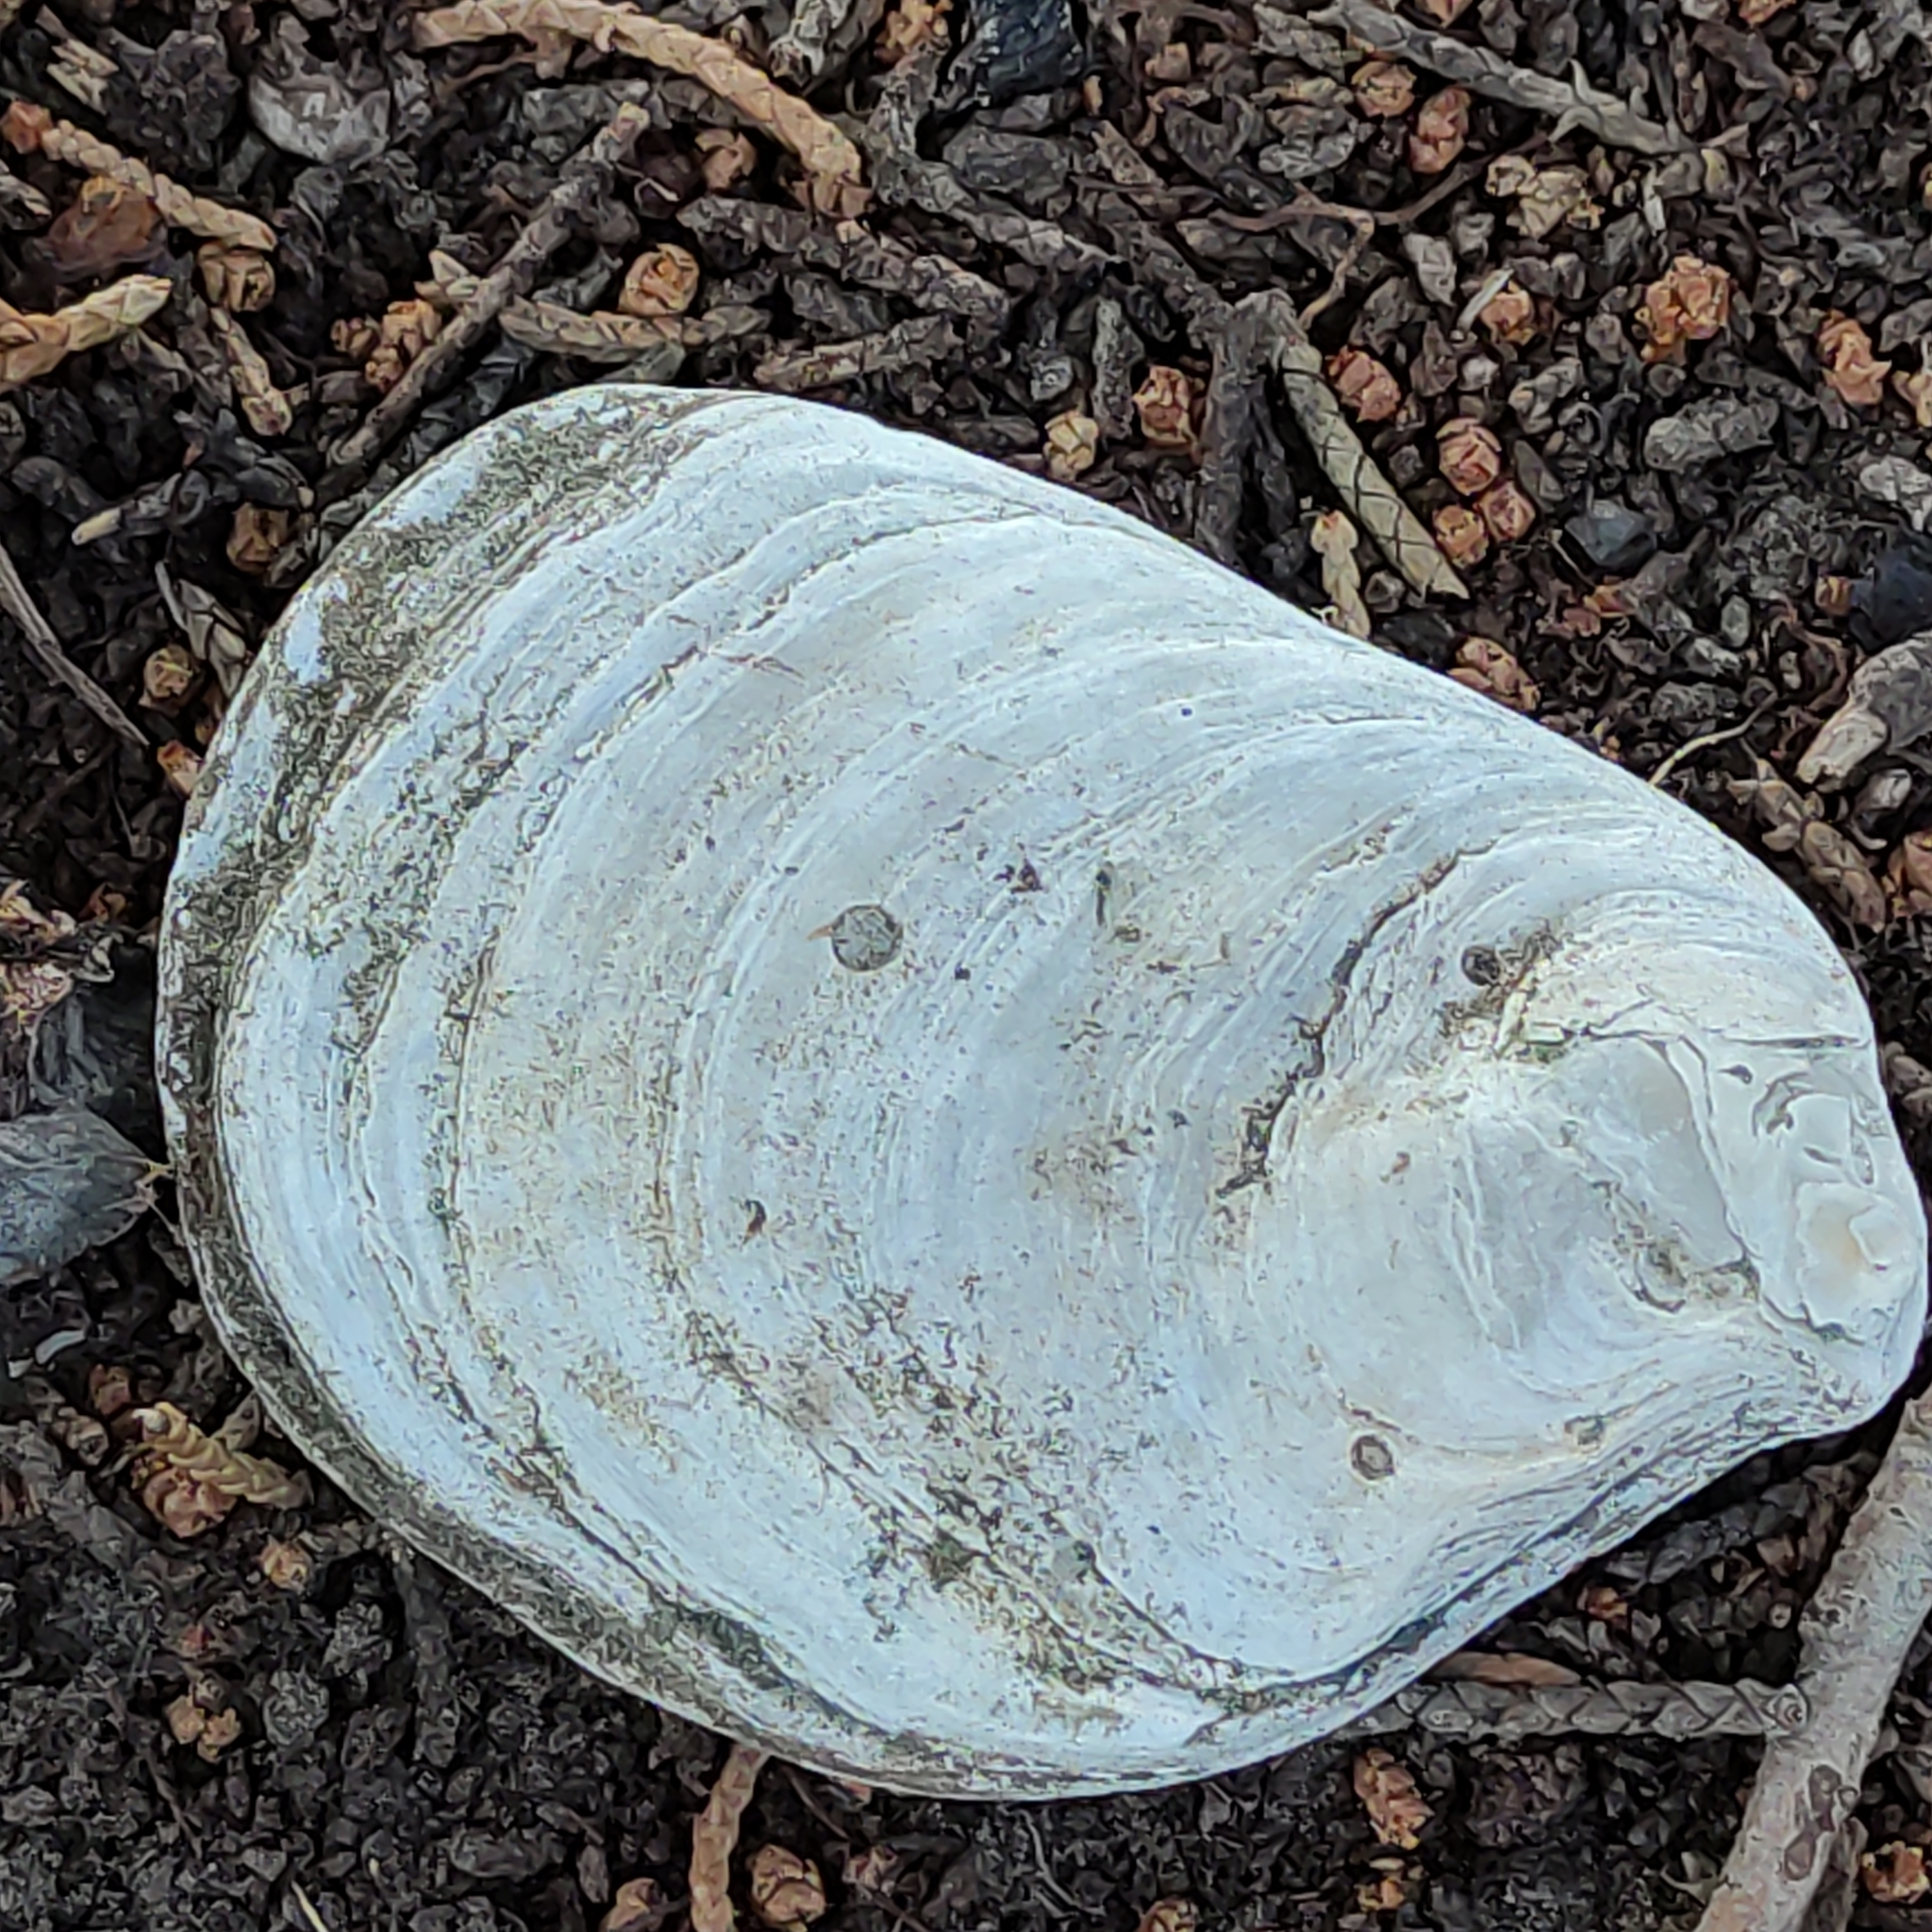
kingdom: Animalia
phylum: Mollusca
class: Bivalvia
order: Ostreida
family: Ostreidae
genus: Ostrea
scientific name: Ostrea chilensis
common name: Chilean oyster
